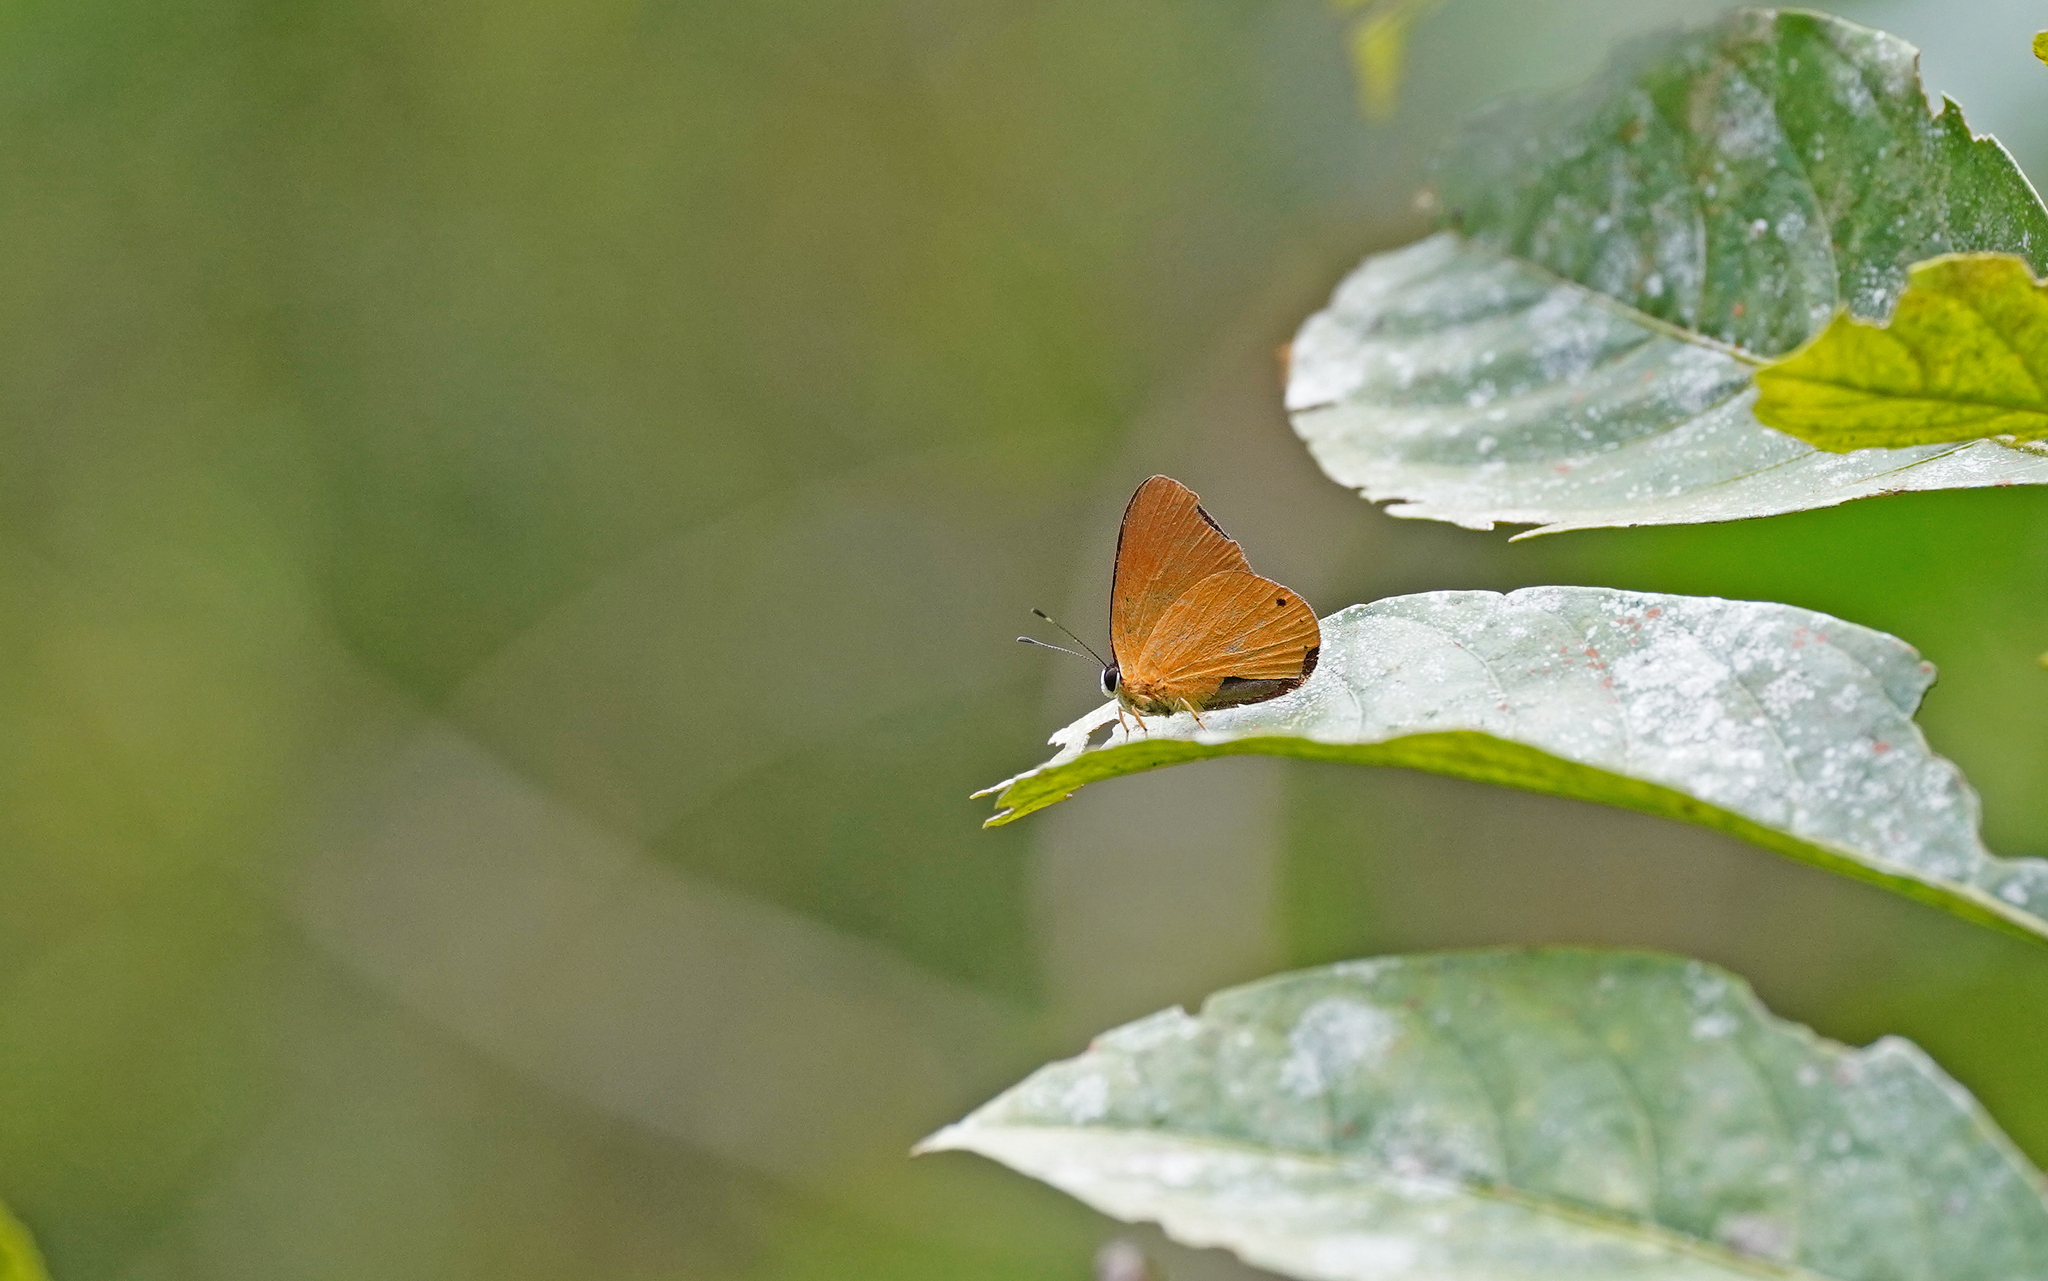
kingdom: Animalia
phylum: Arthropoda
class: Insecta
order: Lepidoptera
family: Lycaenidae
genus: Euselasia
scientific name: Euselasia candaria
